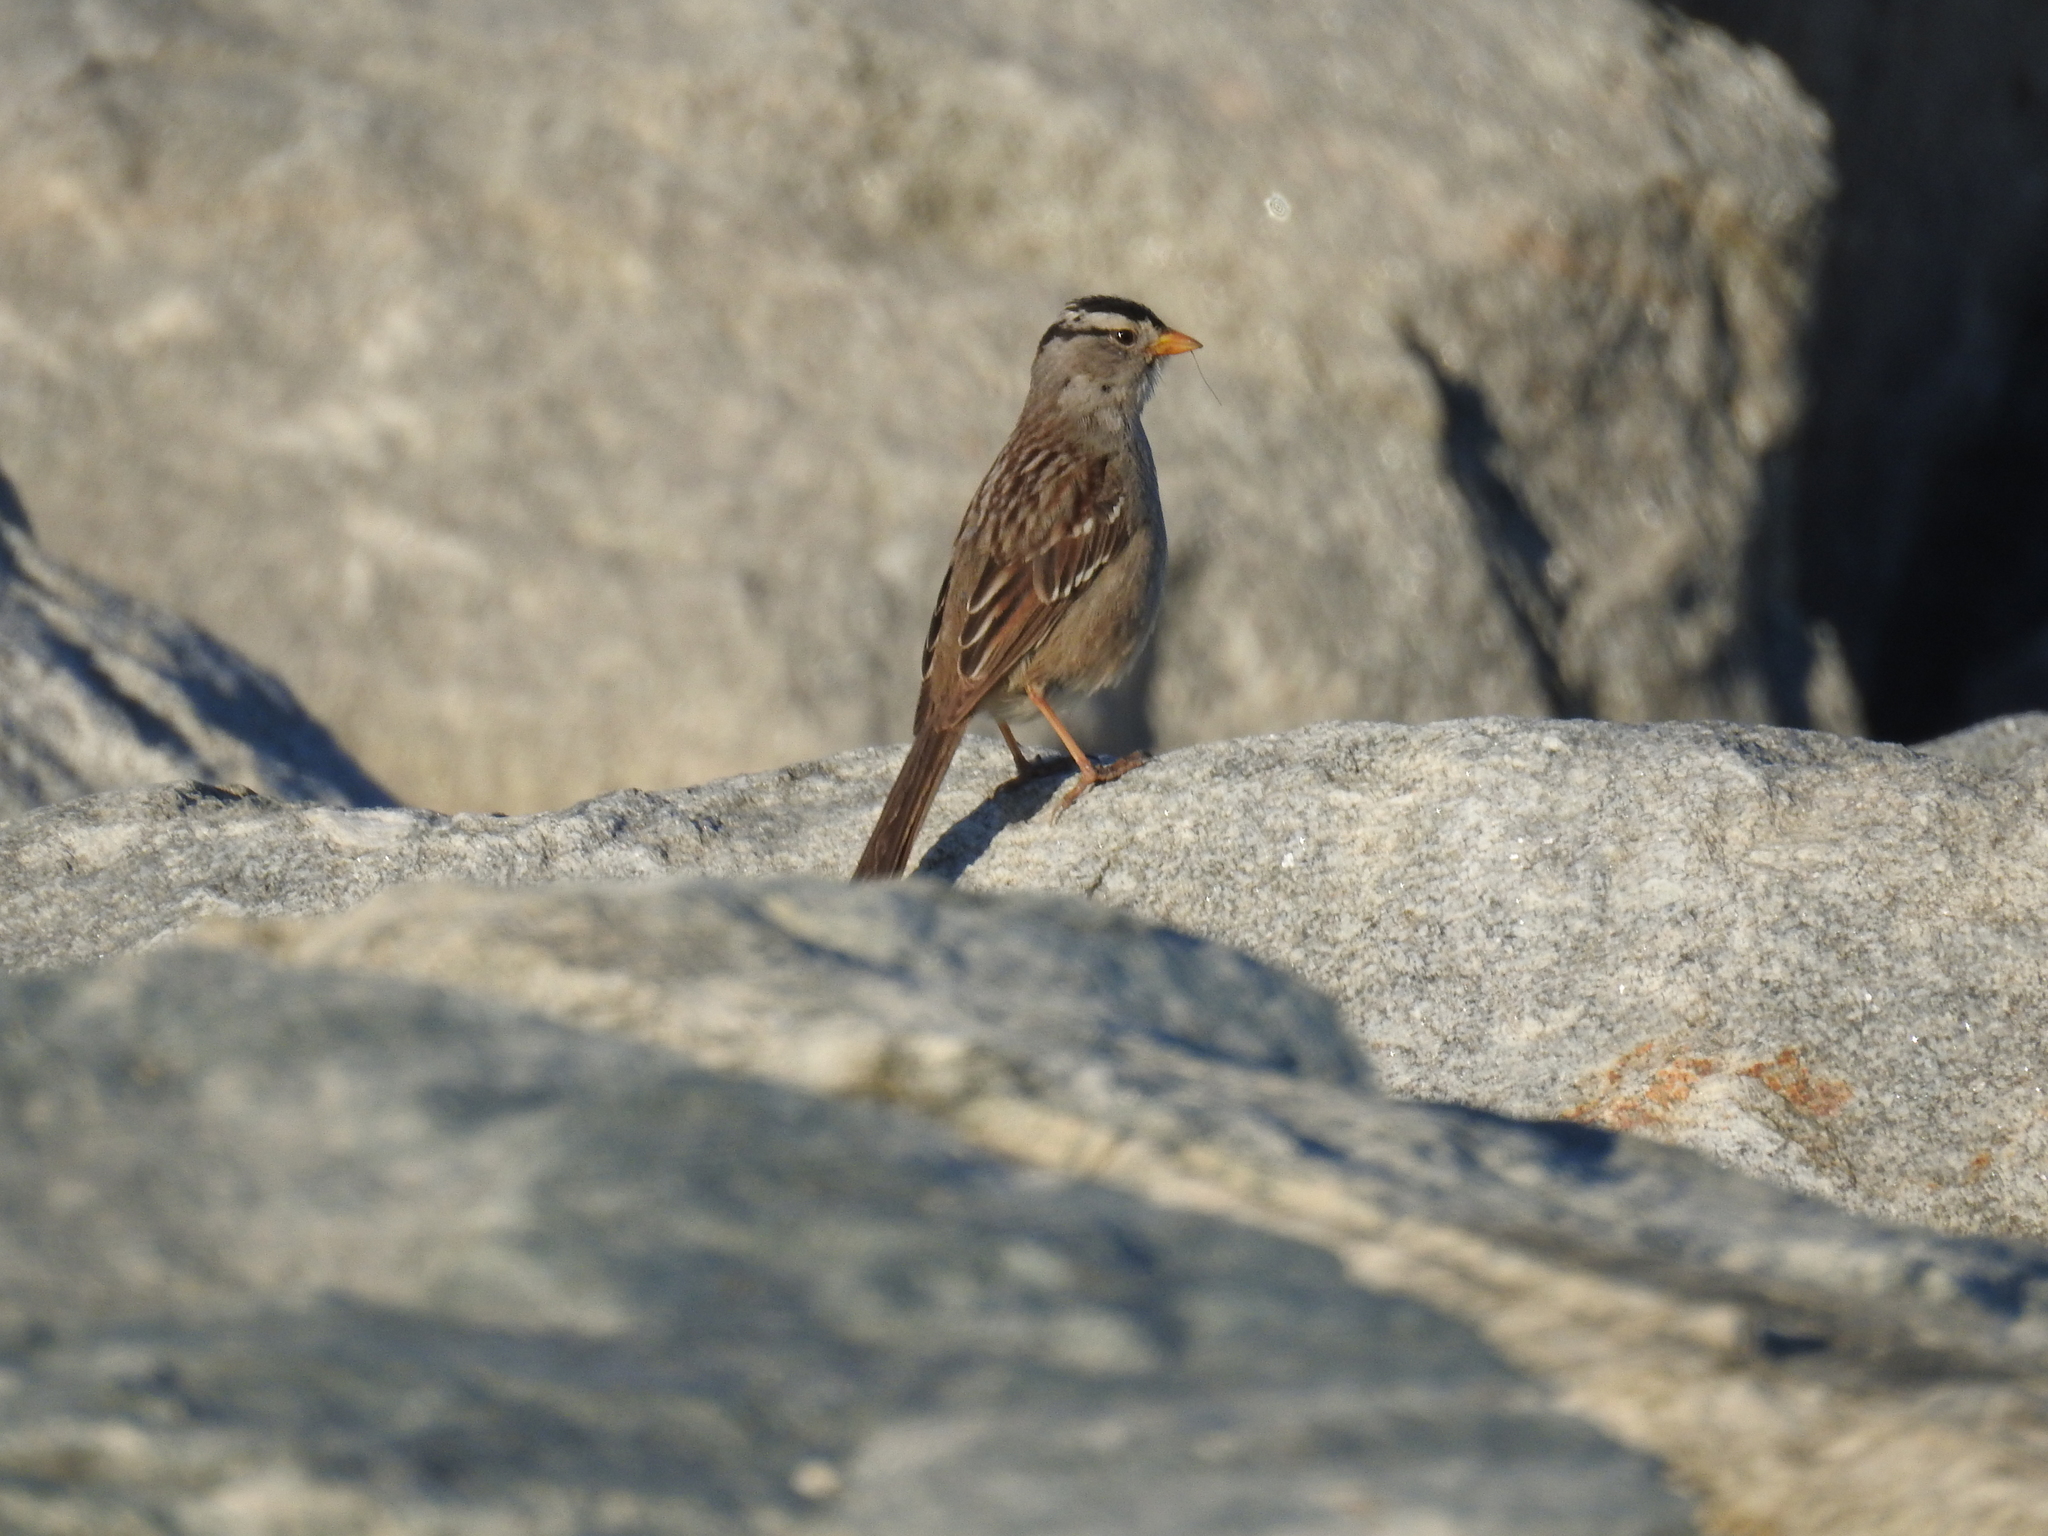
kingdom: Animalia
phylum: Chordata
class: Aves
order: Passeriformes
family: Passerellidae
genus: Zonotrichia
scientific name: Zonotrichia leucophrys
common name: White-crowned sparrow
